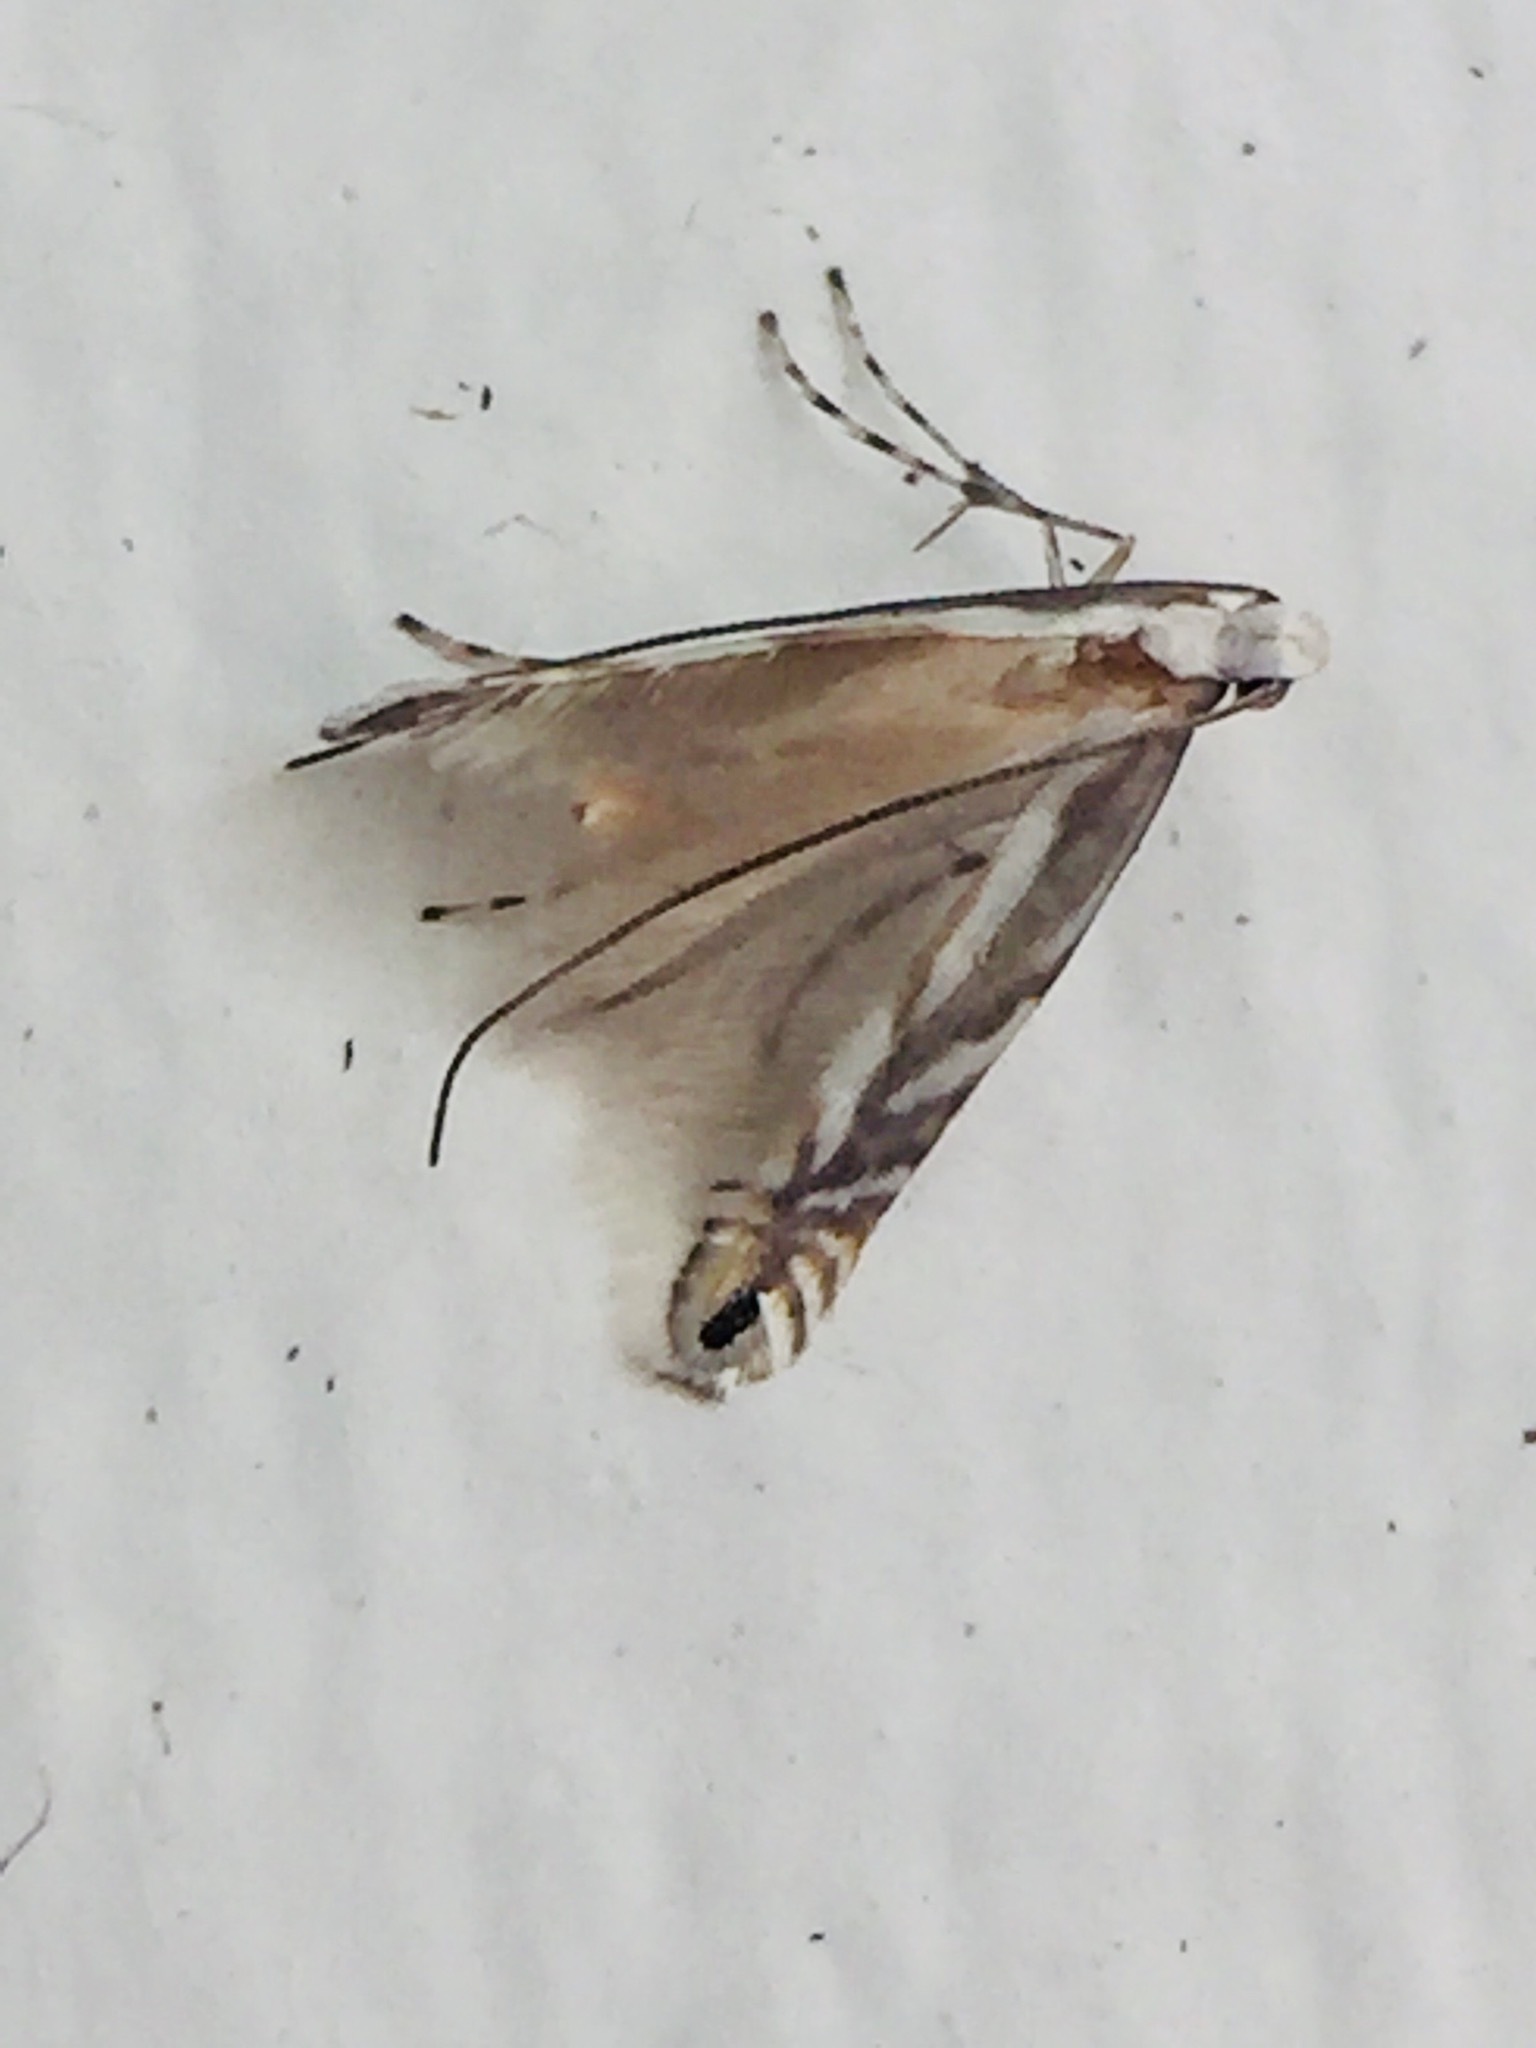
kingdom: Animalia
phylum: Arthropoda
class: Insecta
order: Lepidoptera
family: Gracillariidae
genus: Acrocercops
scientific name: Acrocercops leucotoma
